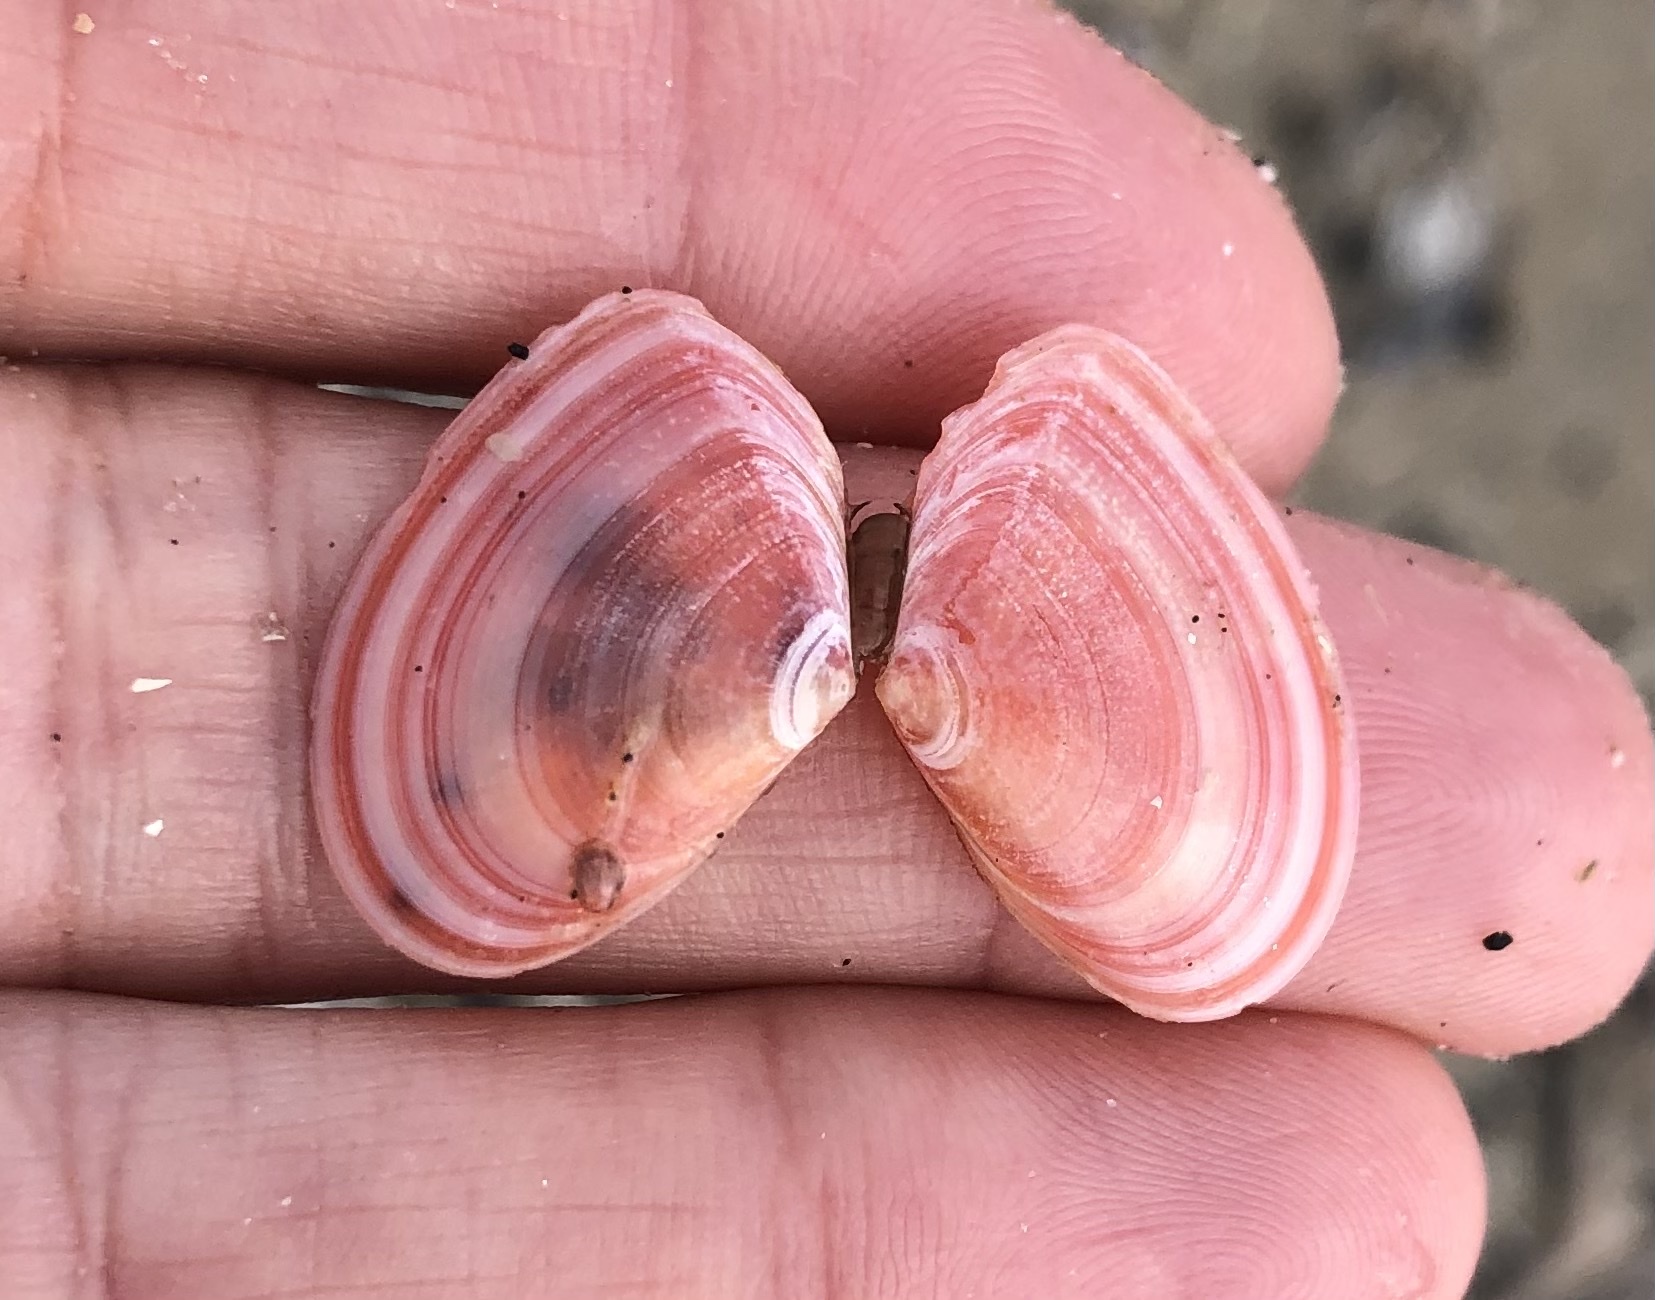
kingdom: Animalia
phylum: Mollusca
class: Bivalvia
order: Cardiida
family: Tellinidae
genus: Macomangulus
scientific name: Macomangulus tenuis
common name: Thin tellin
